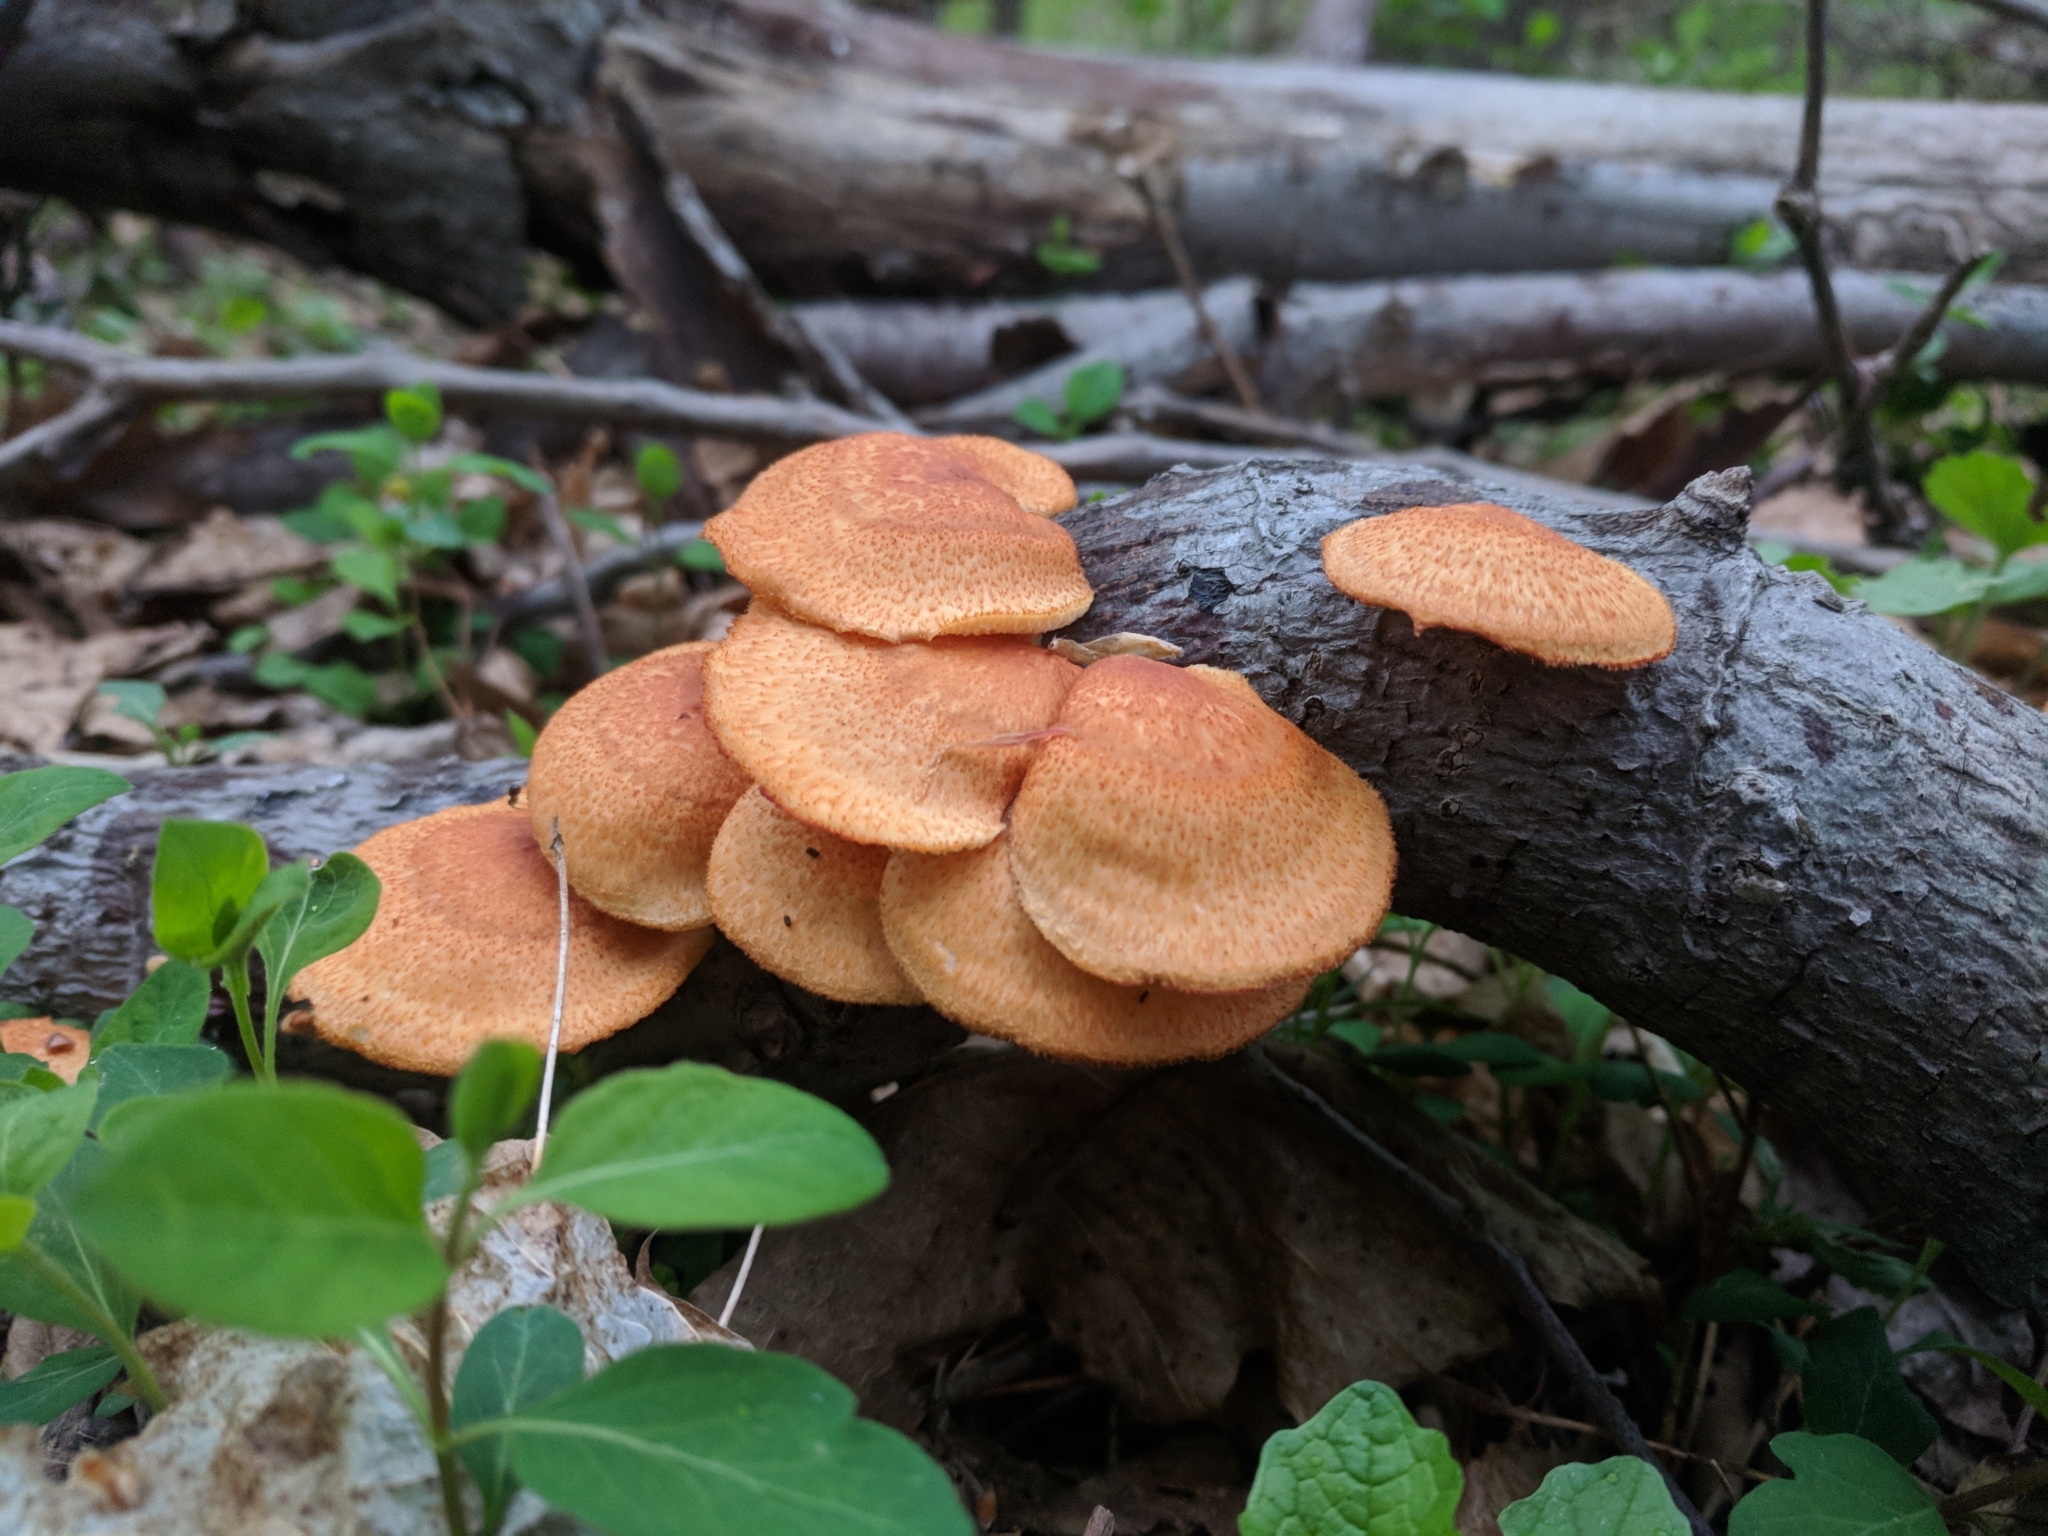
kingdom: Fungi
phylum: Basidiomycota
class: Agaricomycetes
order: Polyporales
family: Polyporaceae
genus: Neofavolus
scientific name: Neofavolus alveolaris
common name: Hexagonal-pored polypore
